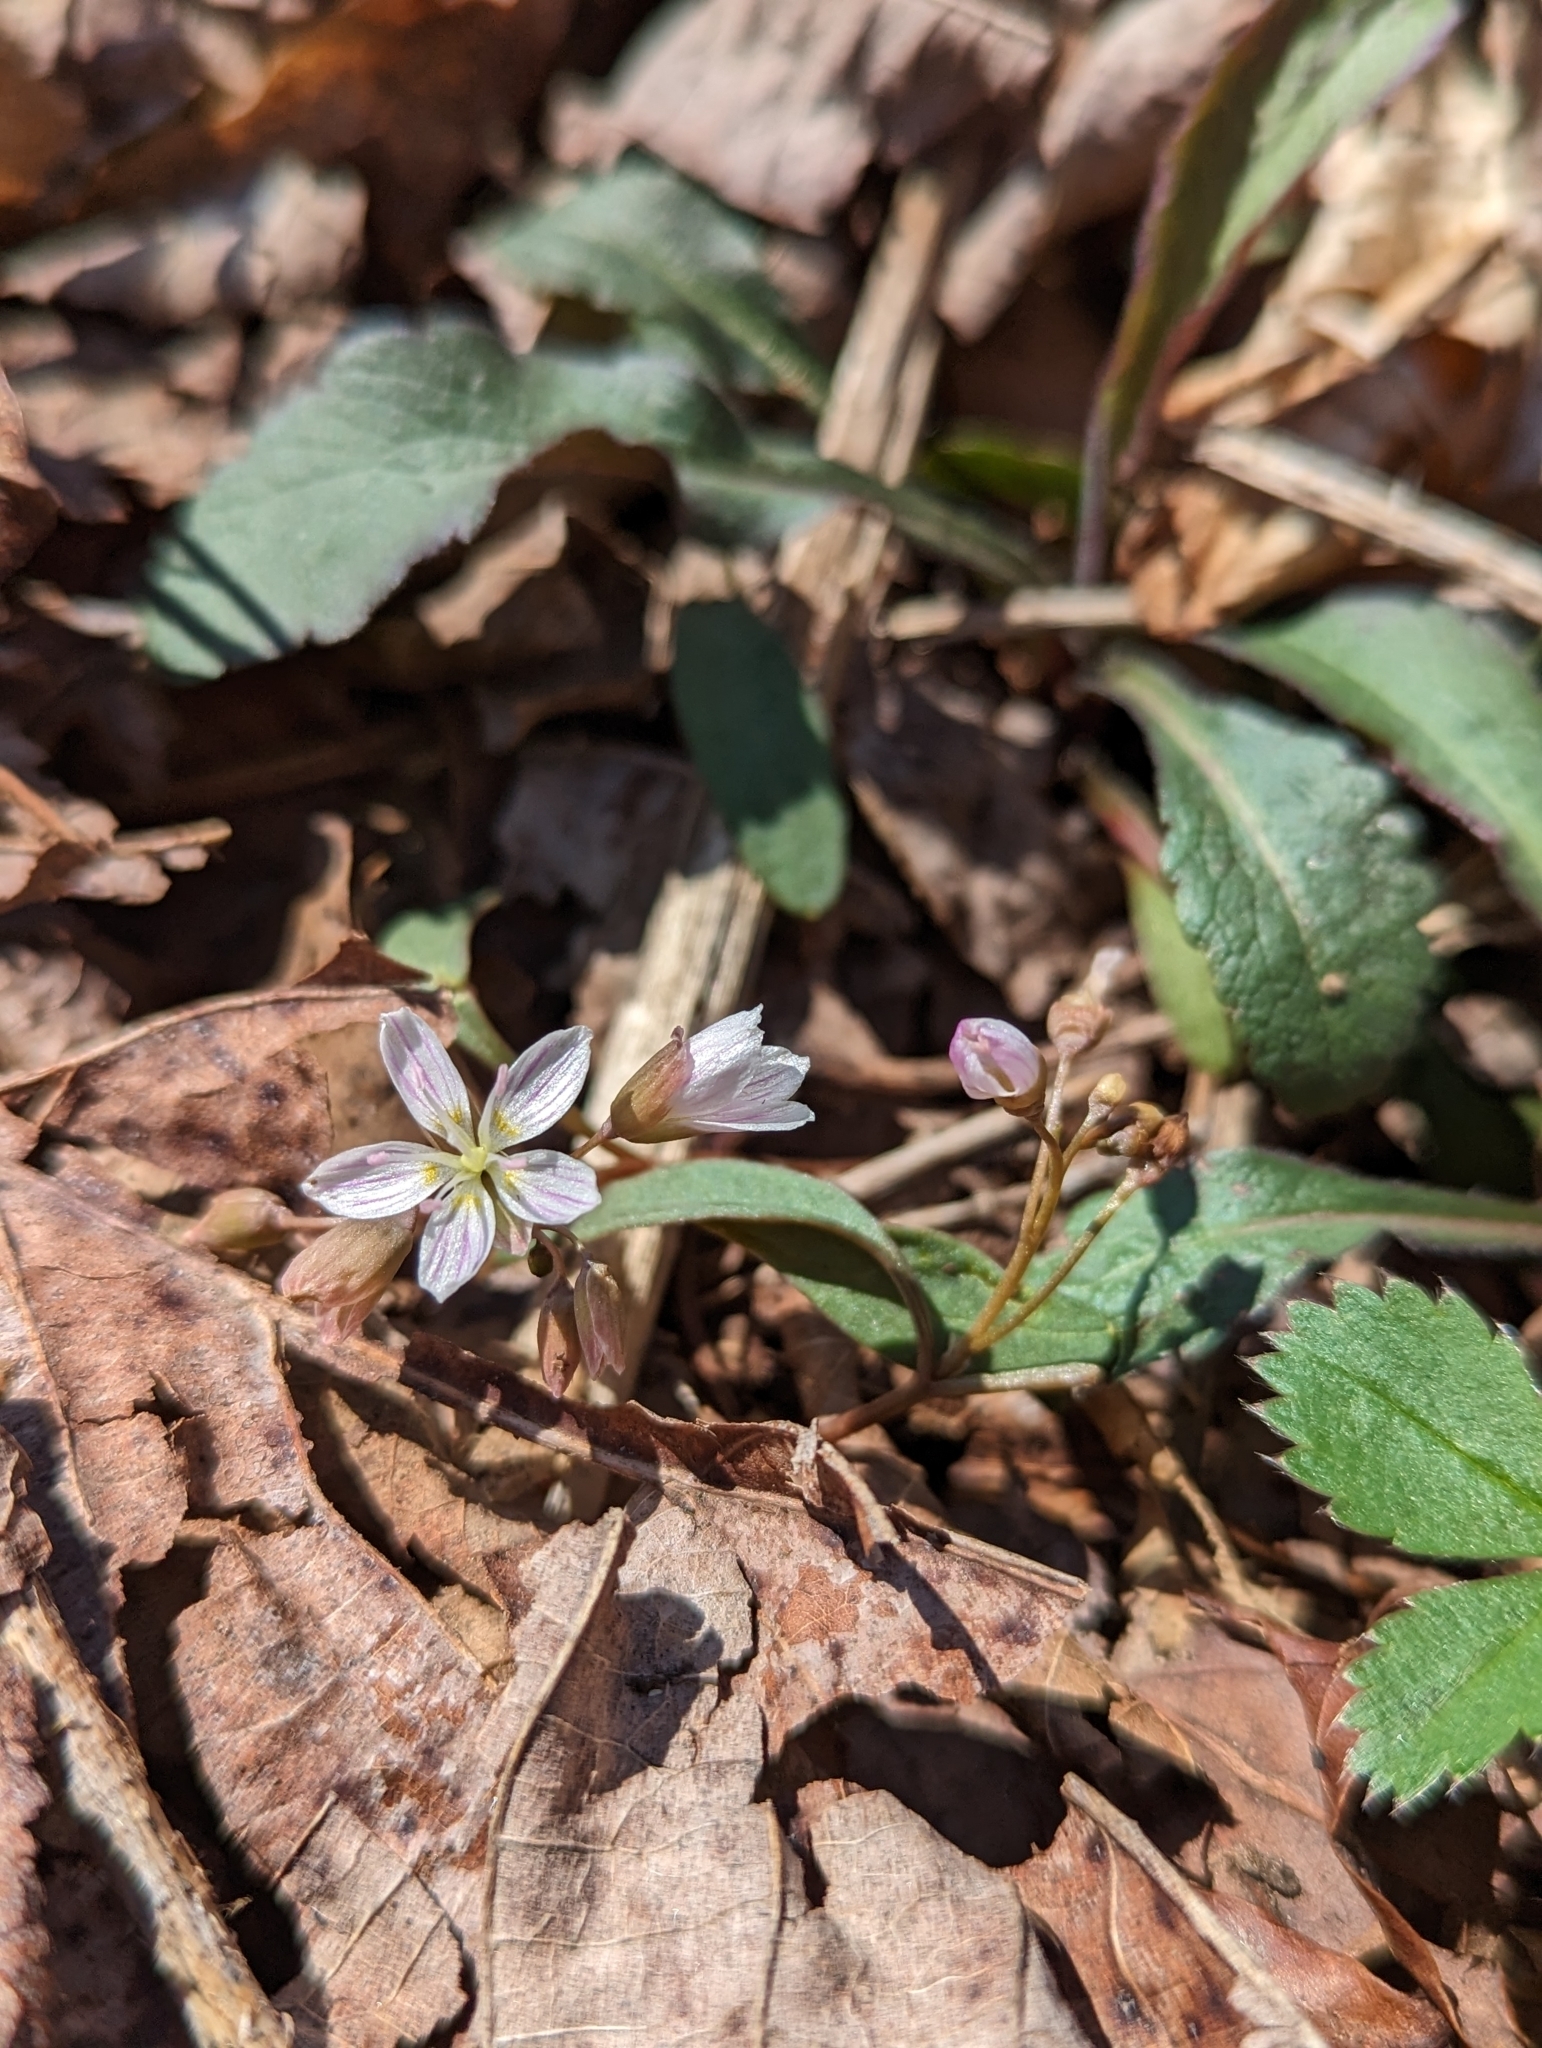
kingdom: Plantae
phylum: Tracheophyta
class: Magnoliopsida
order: Caryophyllales
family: Montiaceae
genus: Claytonia
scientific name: Claytonia virginica
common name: Virginia springbeauty
